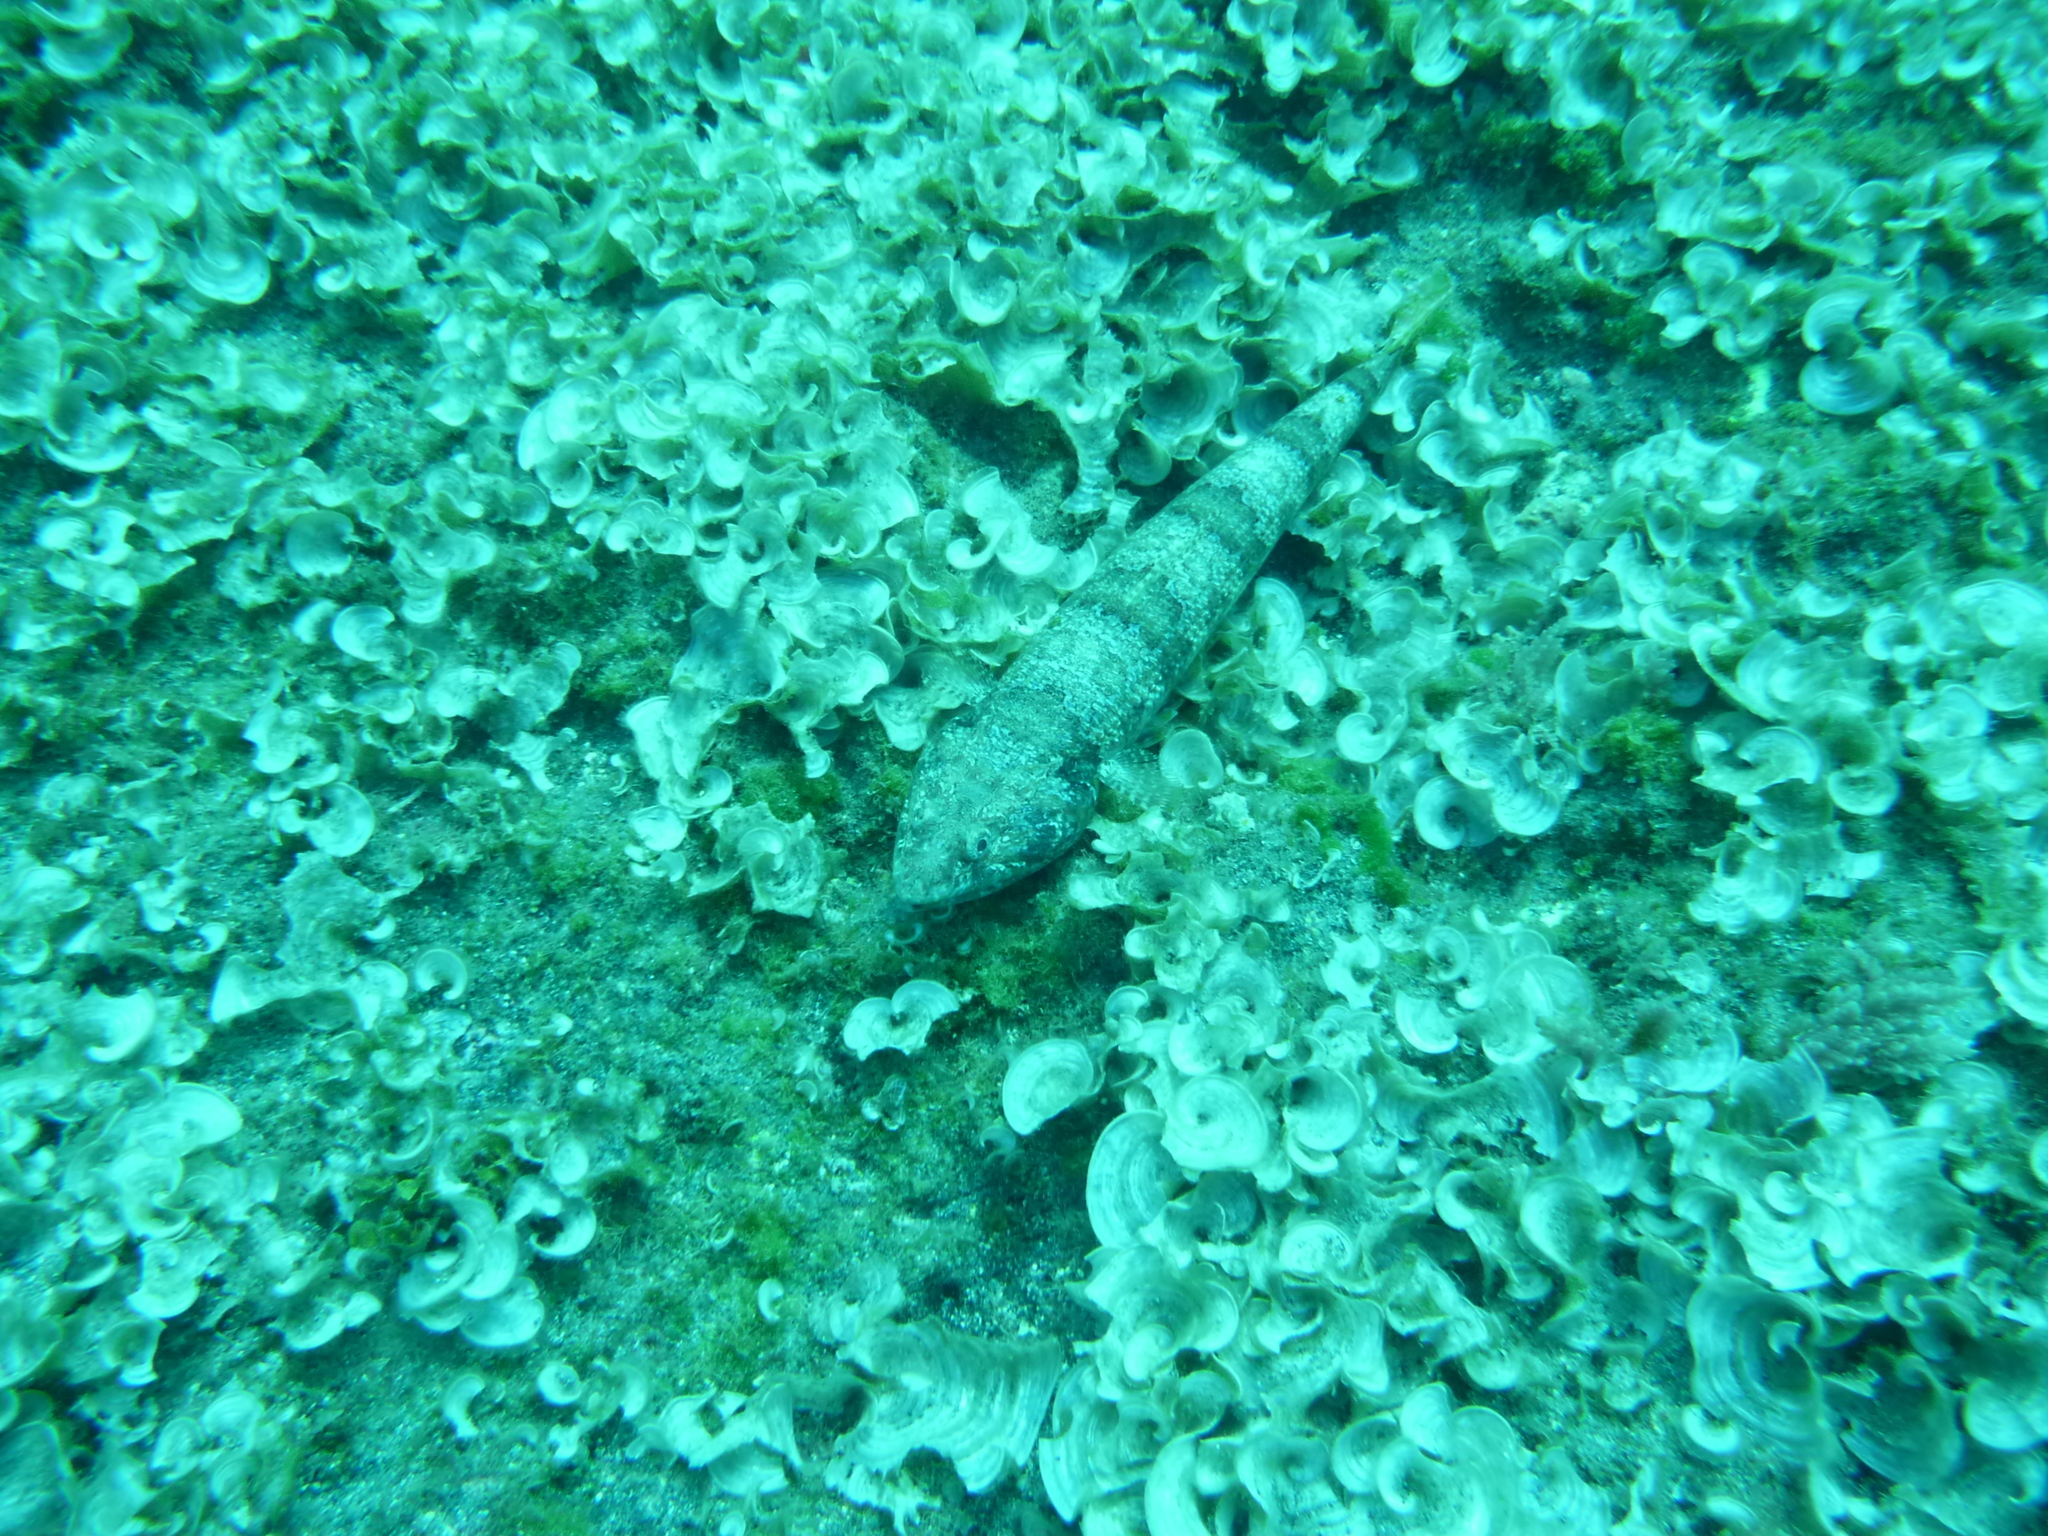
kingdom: Animalia
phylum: Chordata
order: Aulopiformes
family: Synodontidae
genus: Synodus
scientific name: Synodus synodus
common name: Red lizardfish
